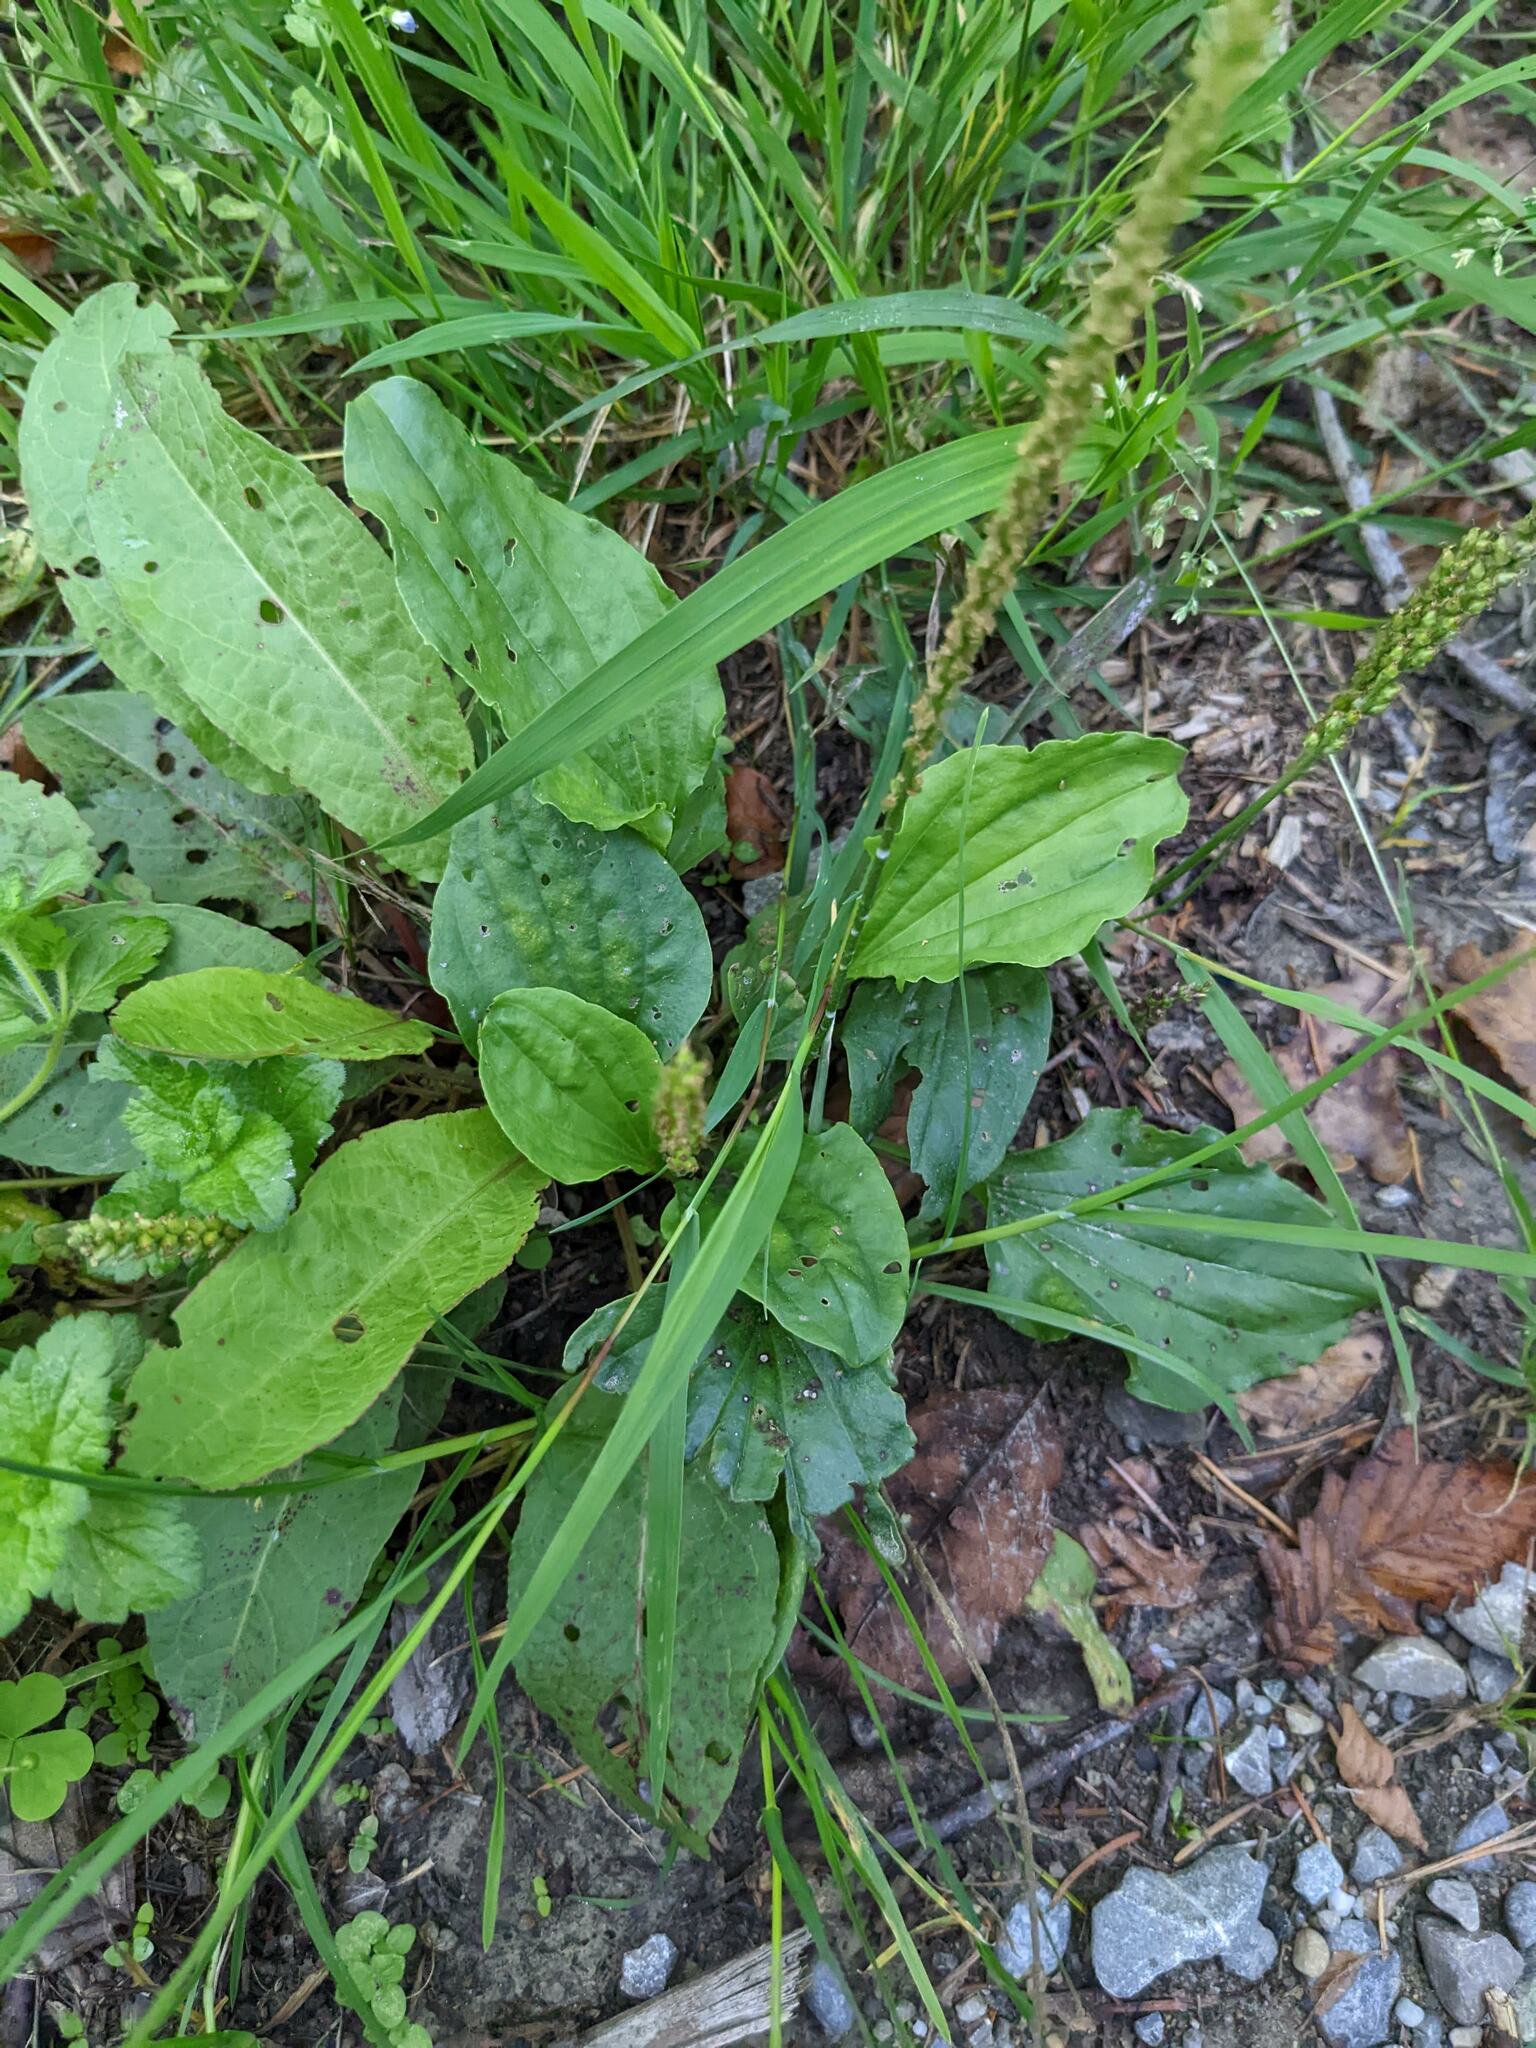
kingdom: Plantae
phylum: Tracheophyta
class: Magnoliopsida
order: Lamiales
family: Plantaginaceae
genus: Plantago
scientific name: Plantago major
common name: Common plantain
